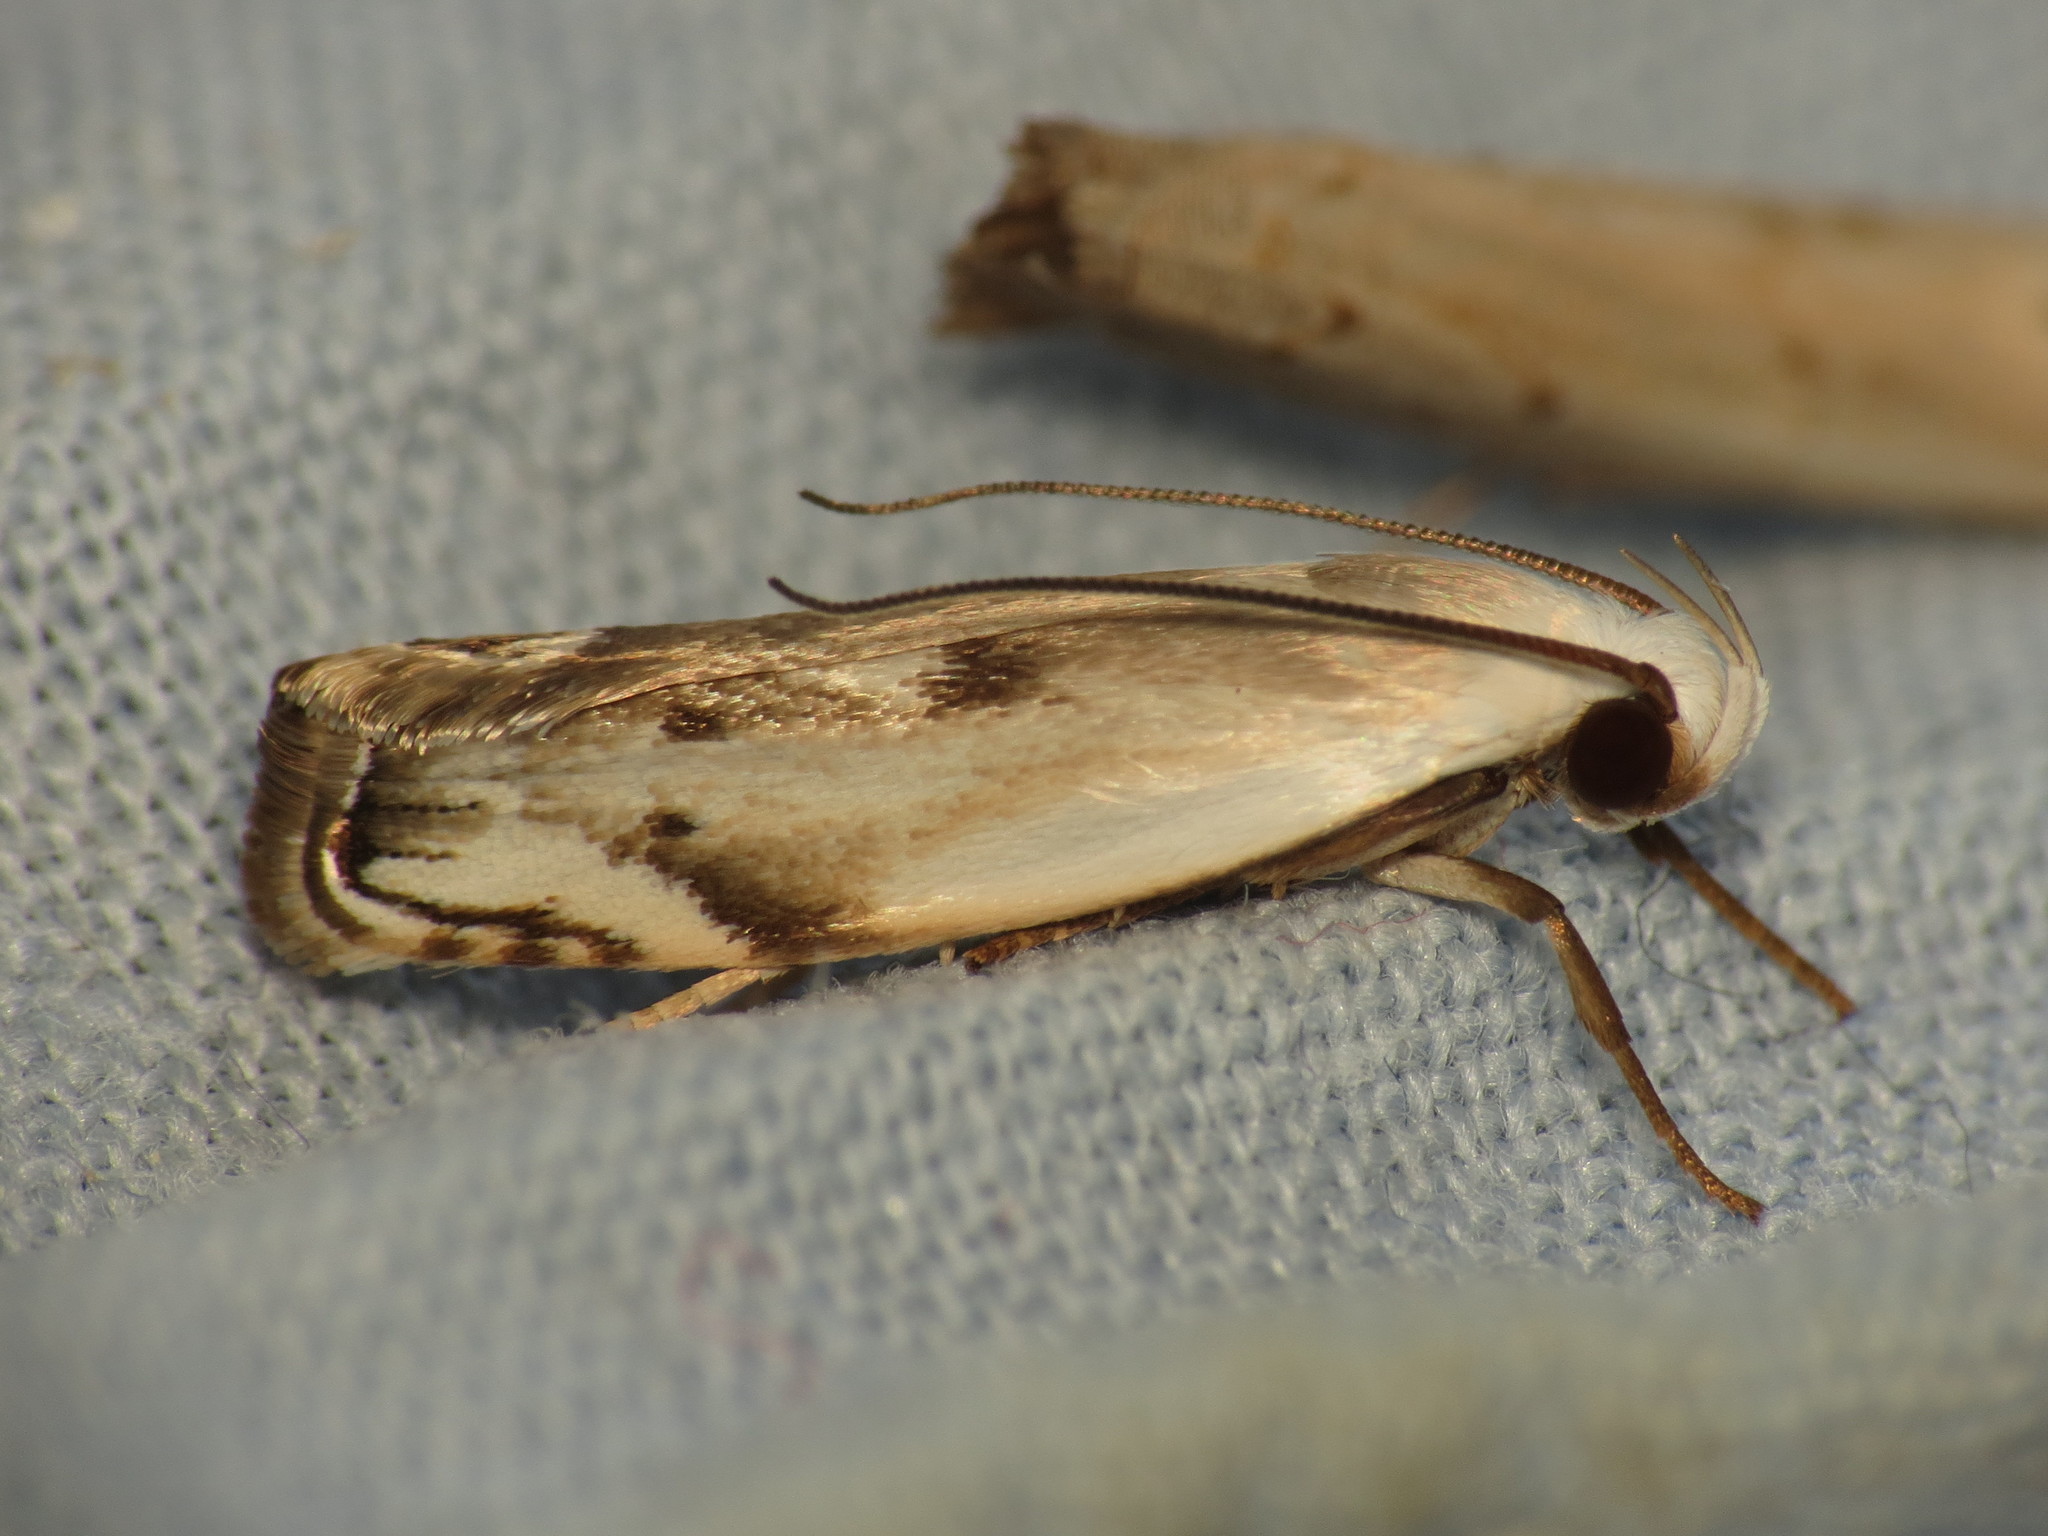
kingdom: Animalia
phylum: Arthropoda
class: Insecta
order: Lepidoptera
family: Xyloryctidae
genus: Plectophila
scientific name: Plectophila discalis
